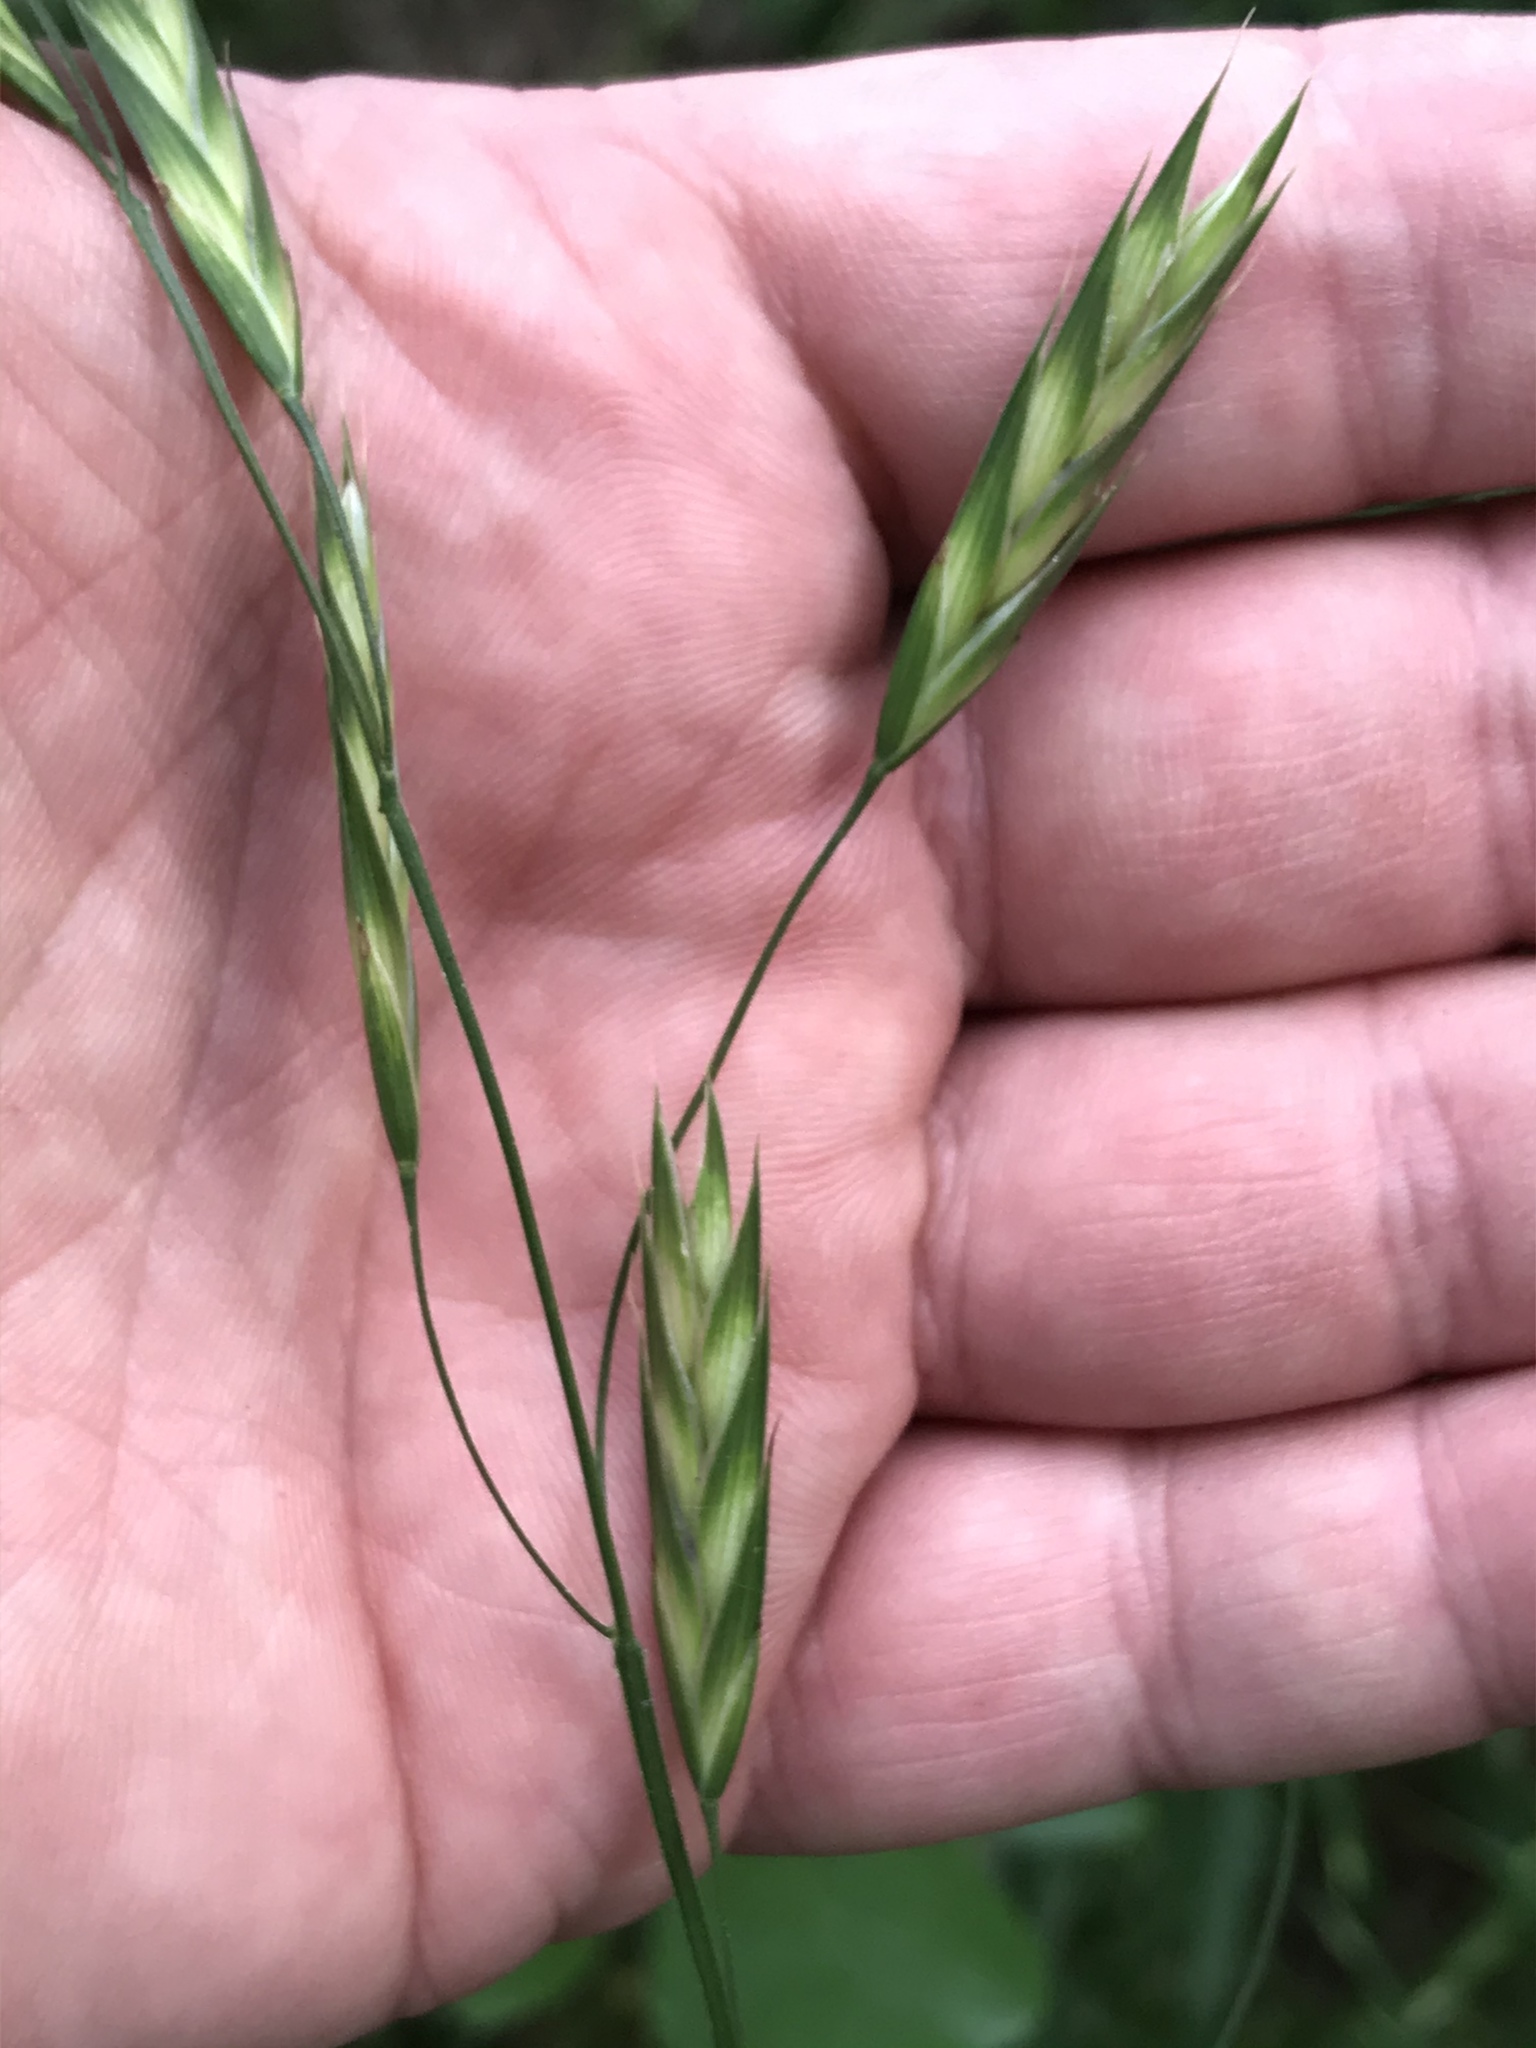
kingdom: Plantae
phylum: Tracheophyta
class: Liliopsida
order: Poales
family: Poaceae
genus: Bromus
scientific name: Bromus catharticus
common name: Rescuegrass
